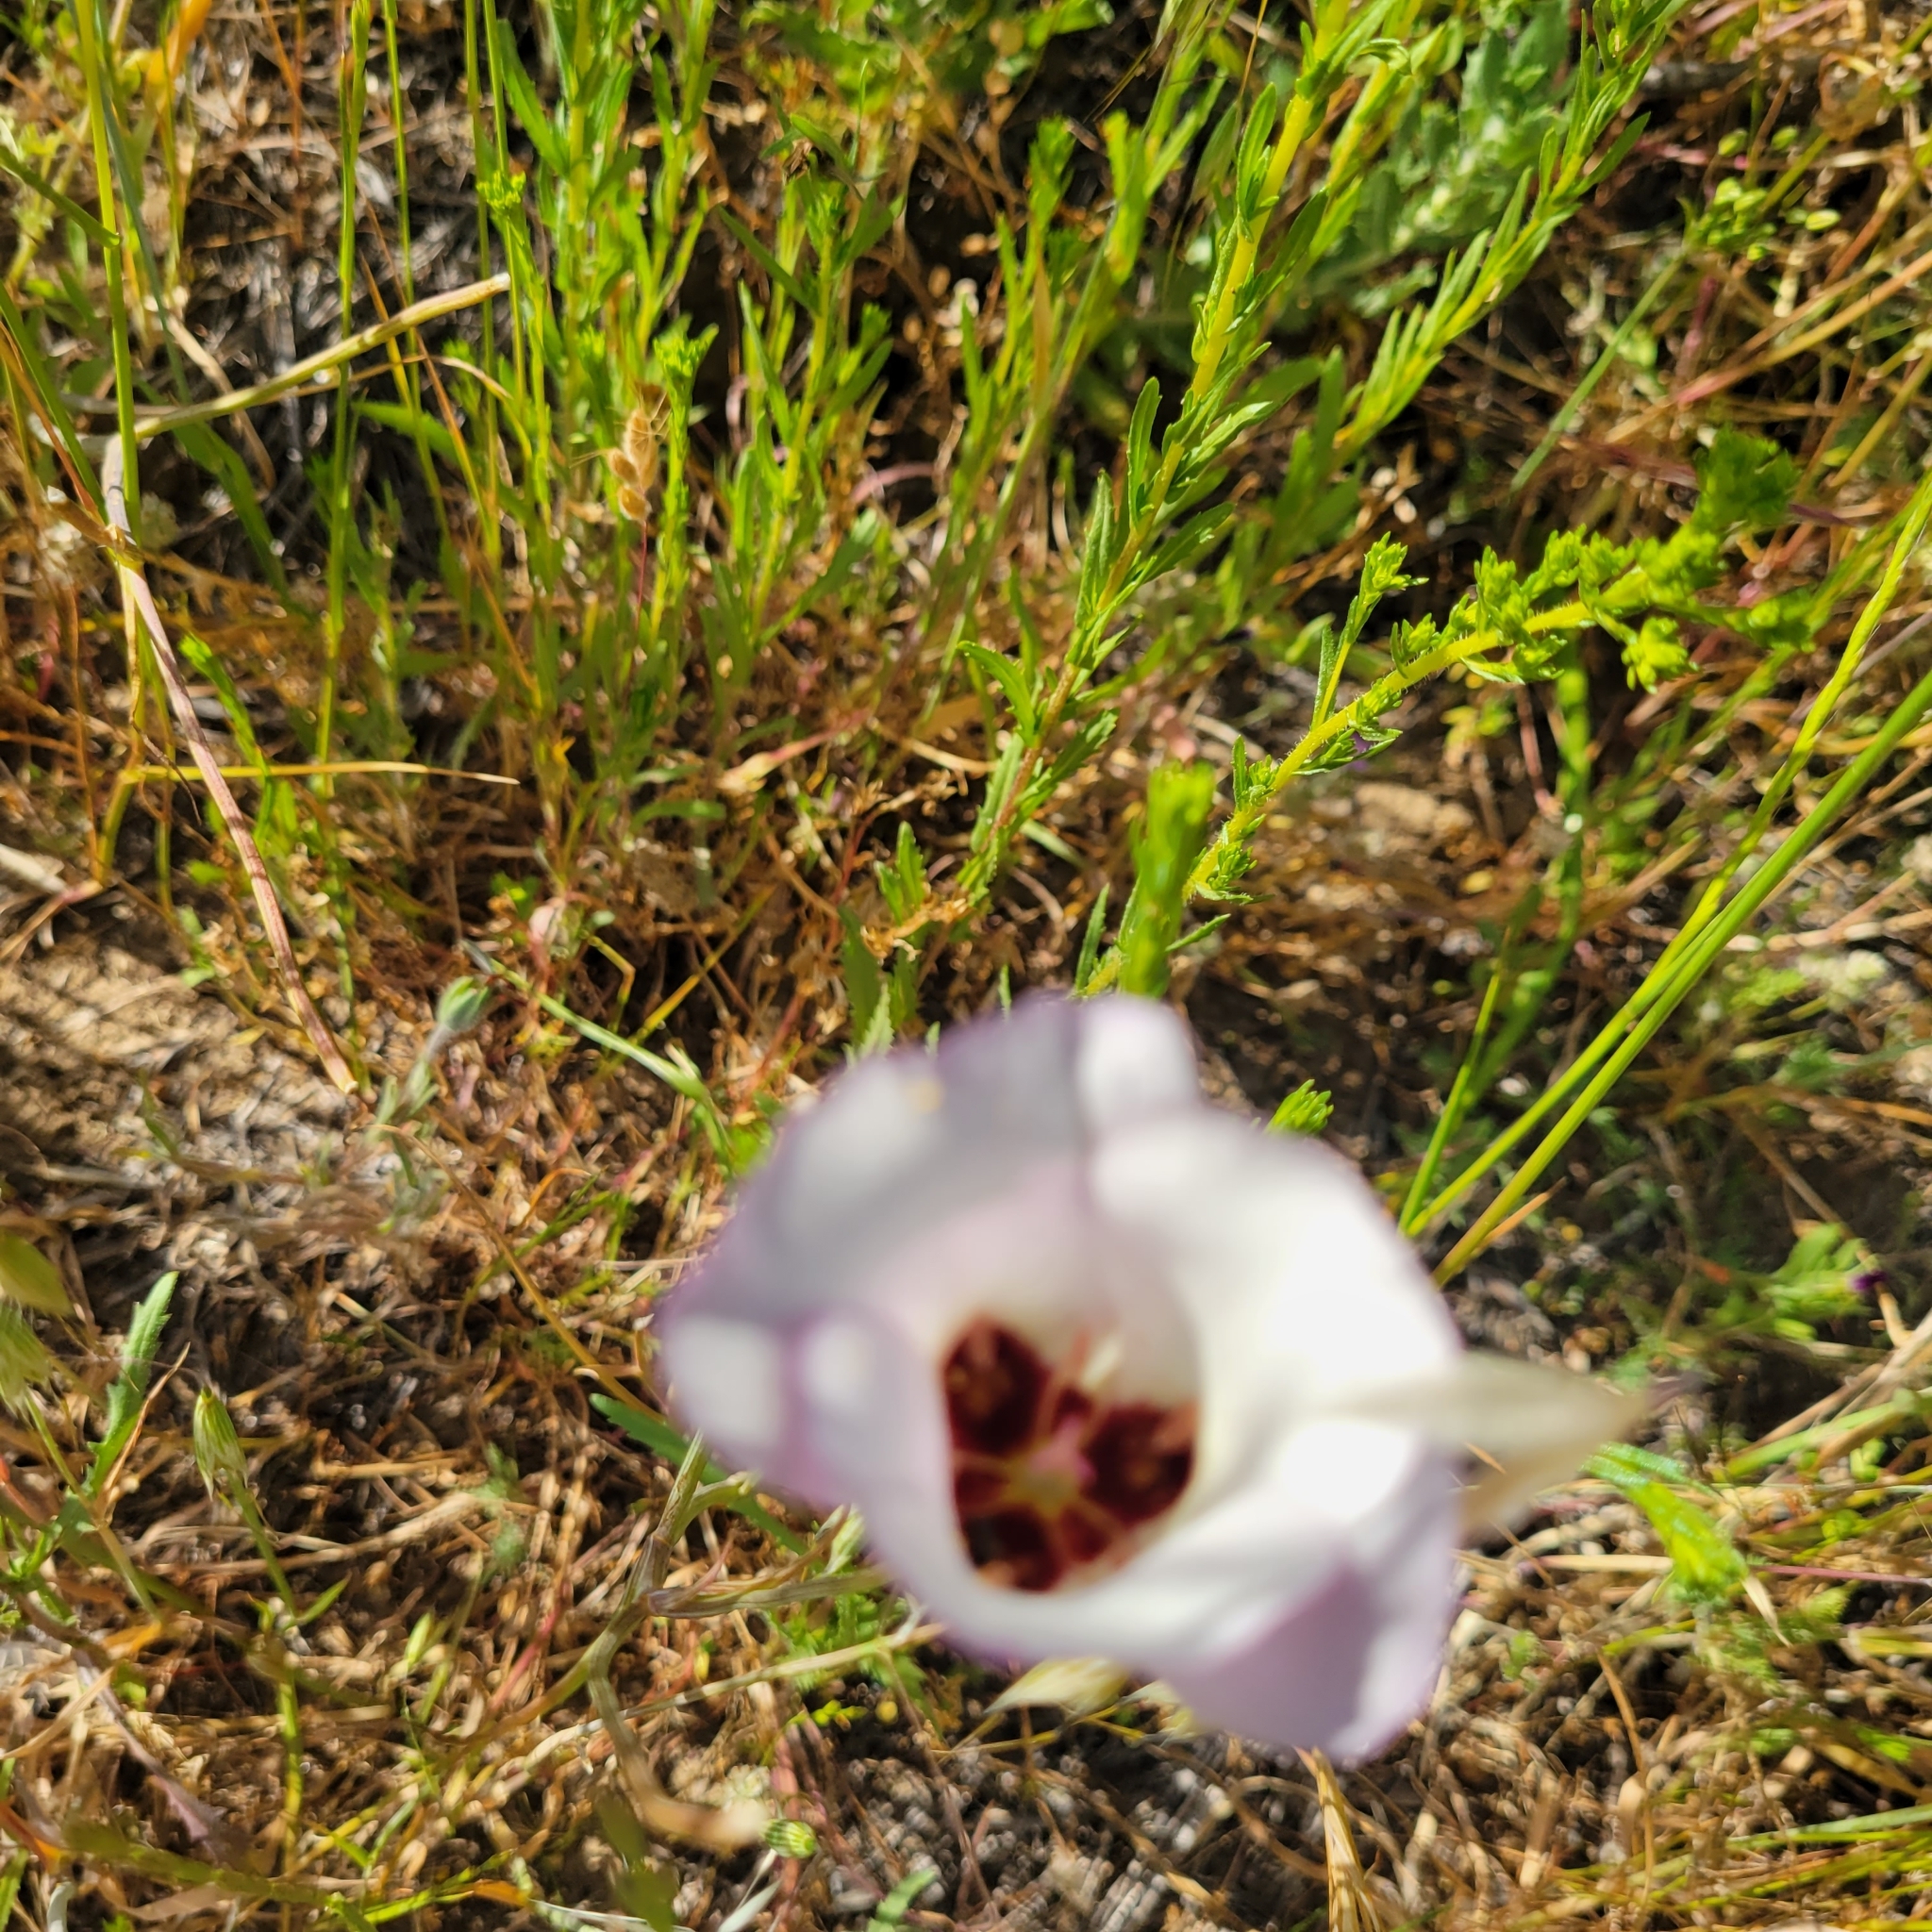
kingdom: Plantae
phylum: Tracheophyta
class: Liliopsida
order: Liliales
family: Liliaceae
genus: Calochortus
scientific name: Calochortus catalinae
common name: Catalina mariposa-lily
